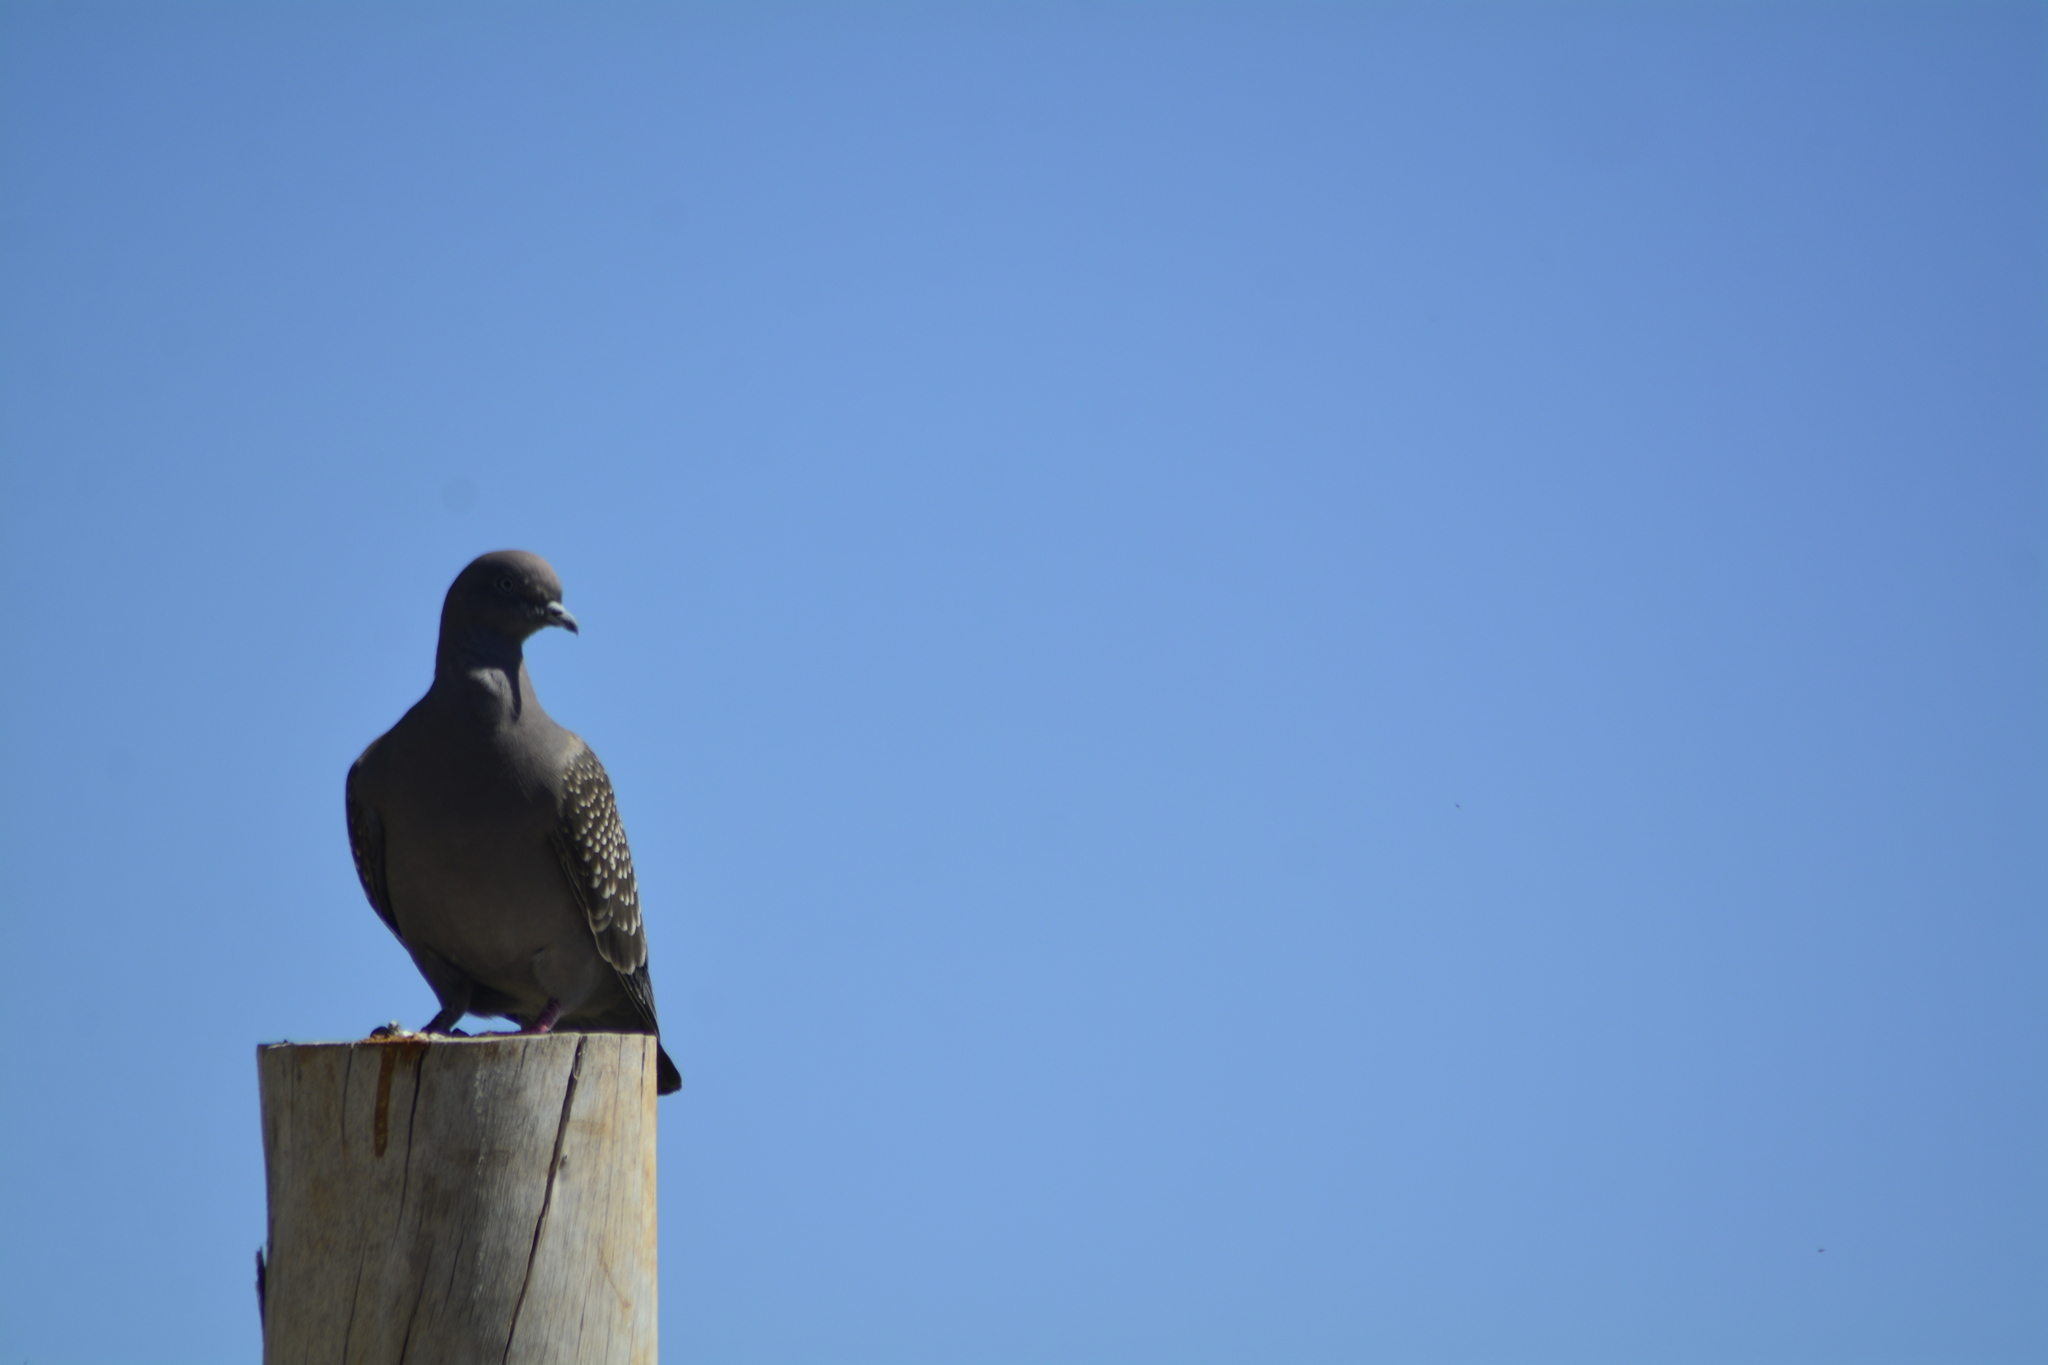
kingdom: Animalia
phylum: Chordata
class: Aves
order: Columbiformes
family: Columbidae
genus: Patagioenas
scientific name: Patagioenas maculosa
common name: Spot-winged pigeon
